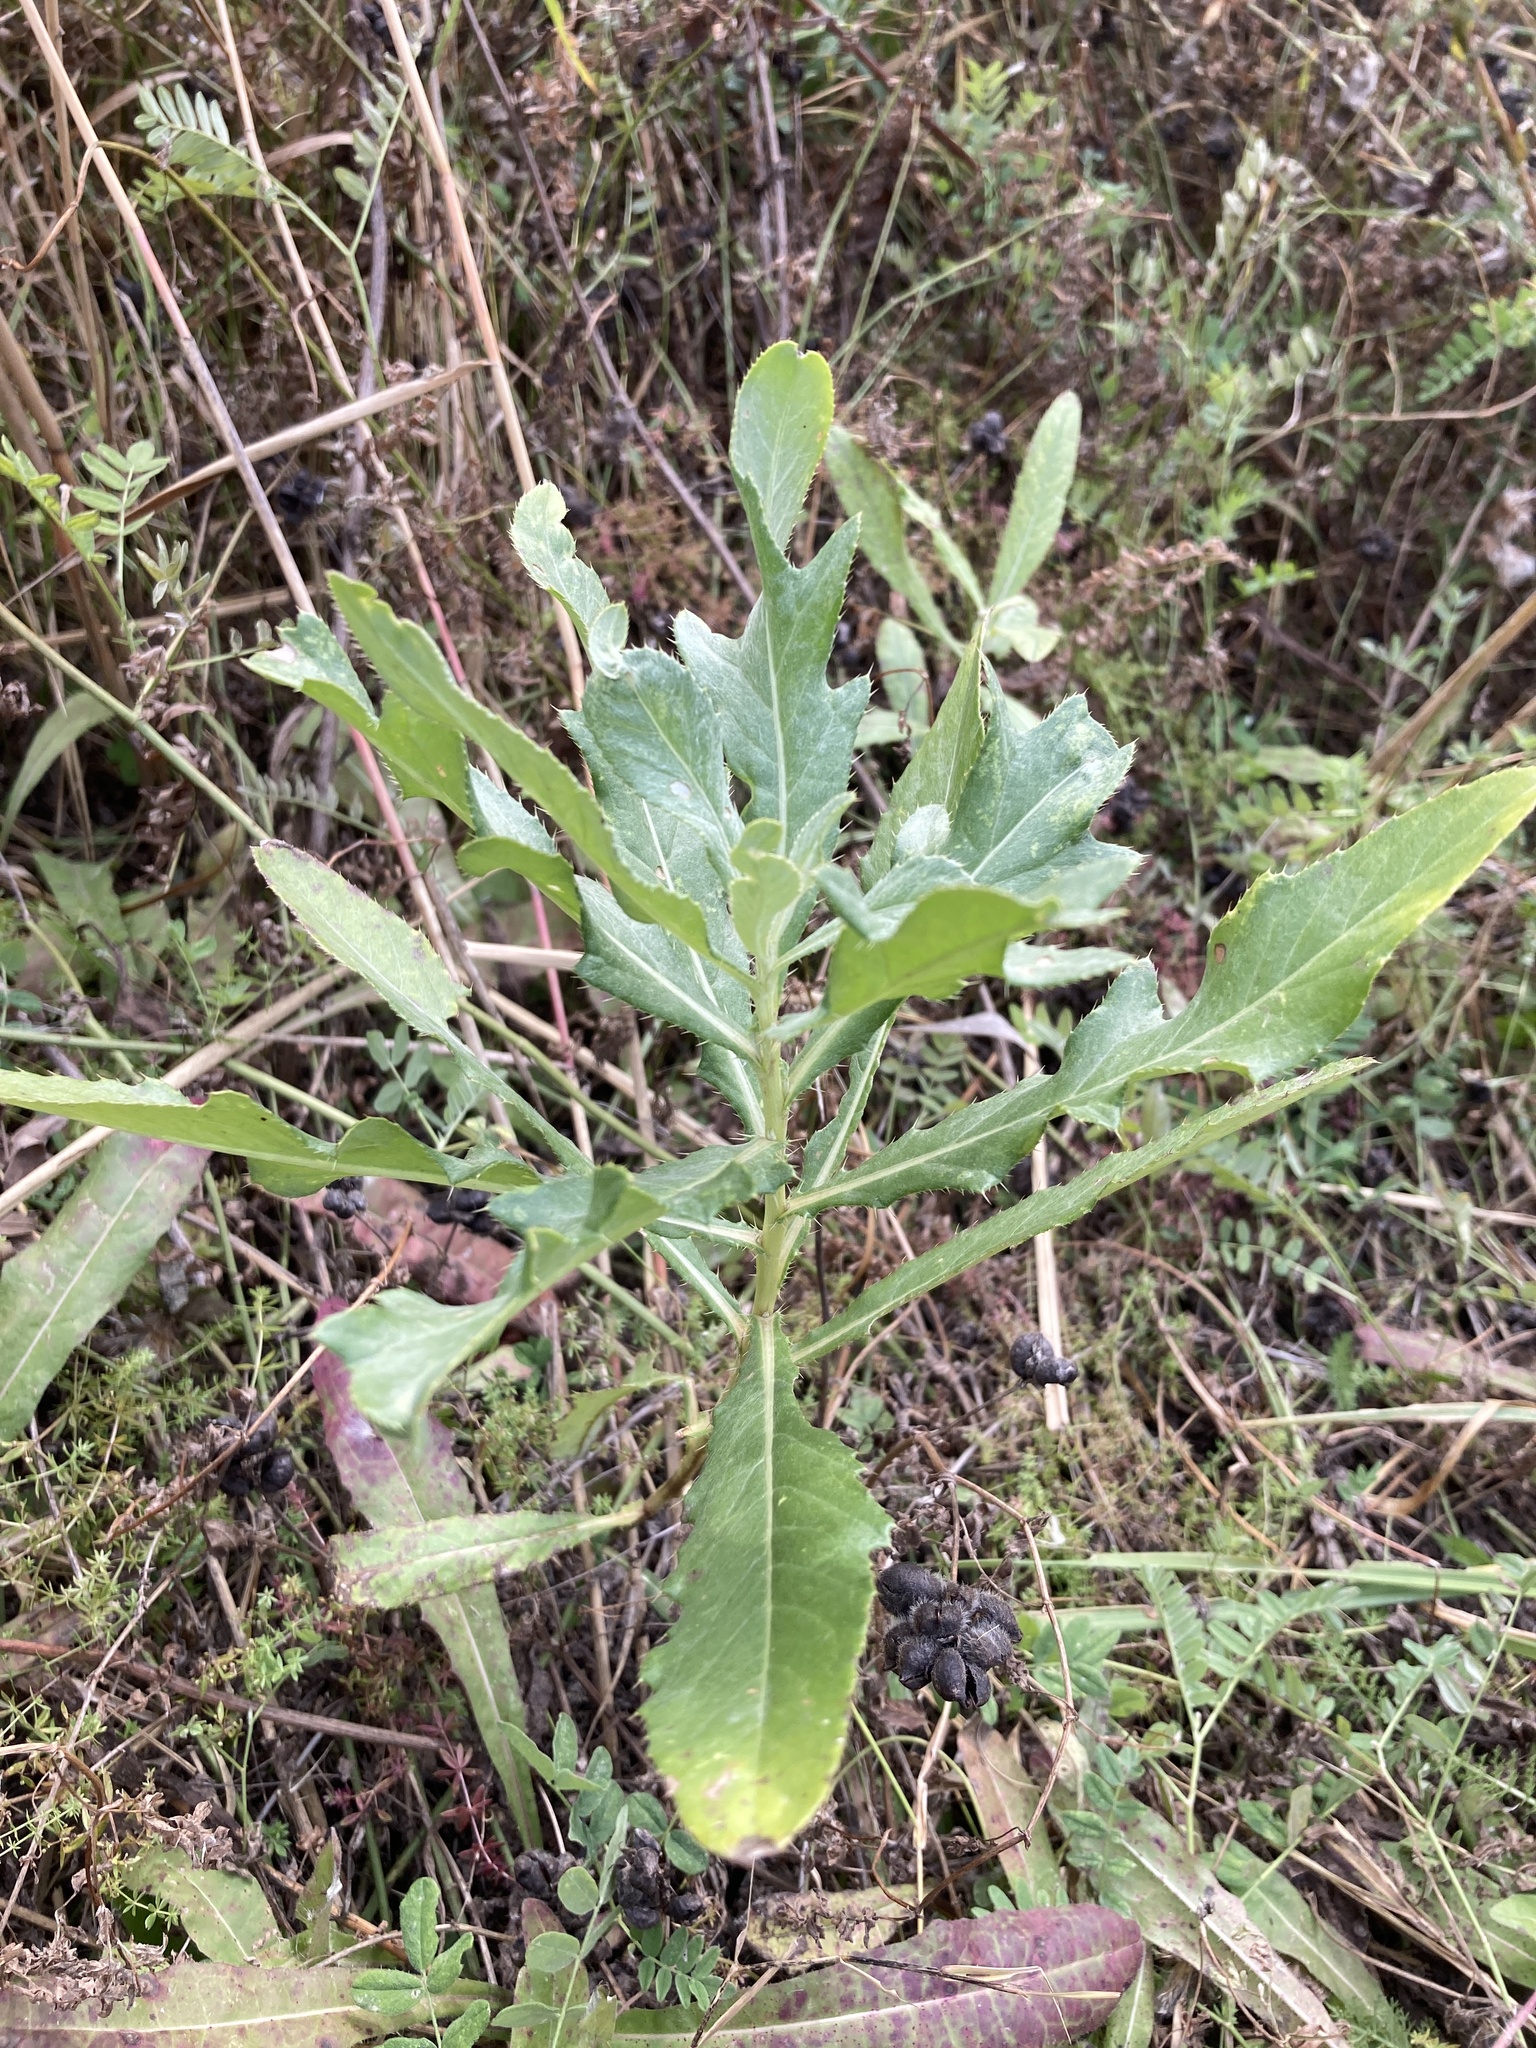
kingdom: Plantae
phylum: Tracheophyta
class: Magnoliopsida
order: Asterales
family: Asteraceae
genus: Cirsium
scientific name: Cirsium arvense
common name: Creeping thistle
